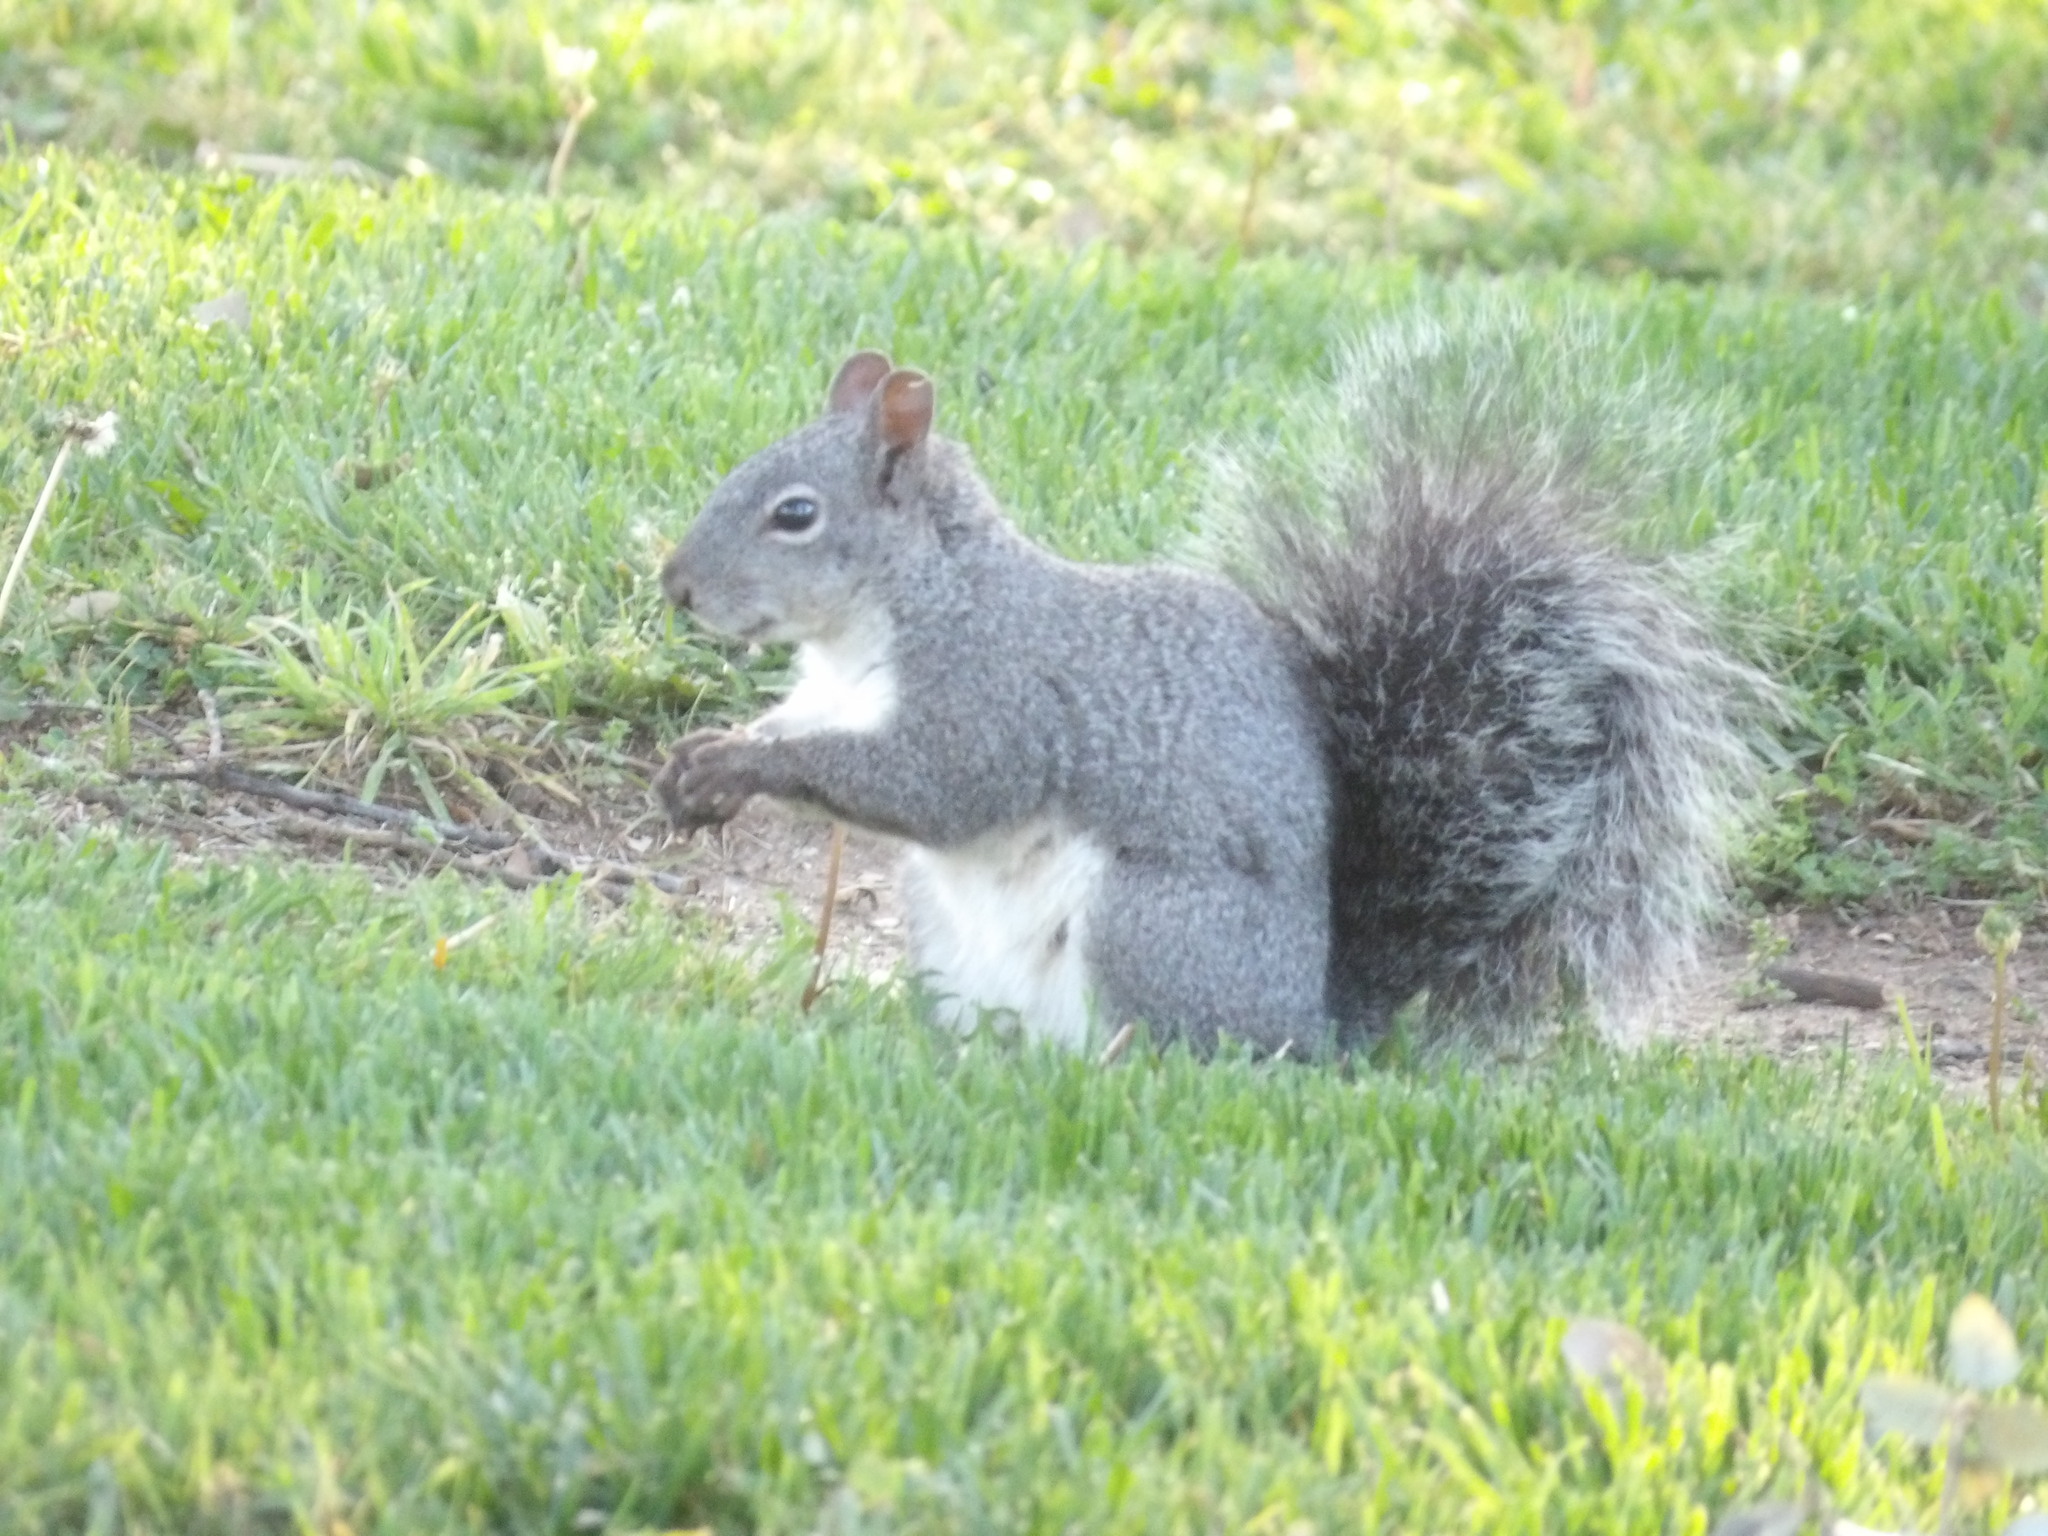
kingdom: Animalia
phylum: Chordata
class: Mammalia
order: Rodentia
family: Sciuridae
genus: Sciurus
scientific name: Sciurus griseus
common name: Western gray squirrel
